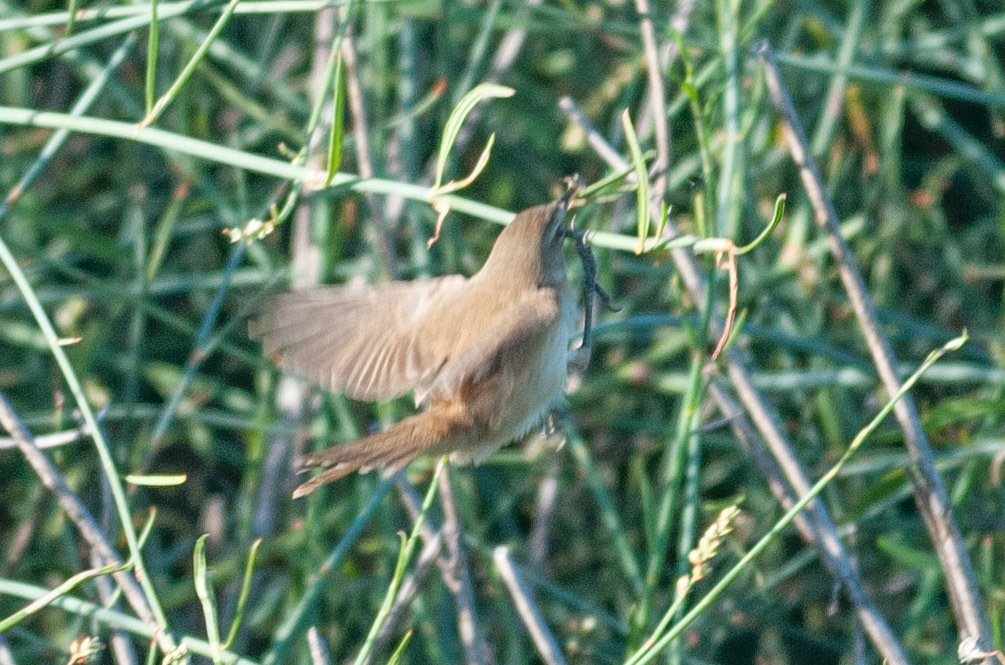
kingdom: Animalia
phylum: Chordata
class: Aves
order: Passeriformes
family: Acrocephalidae
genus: Acrocephalus
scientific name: Acrocephalus australis
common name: Australian reed warbler
